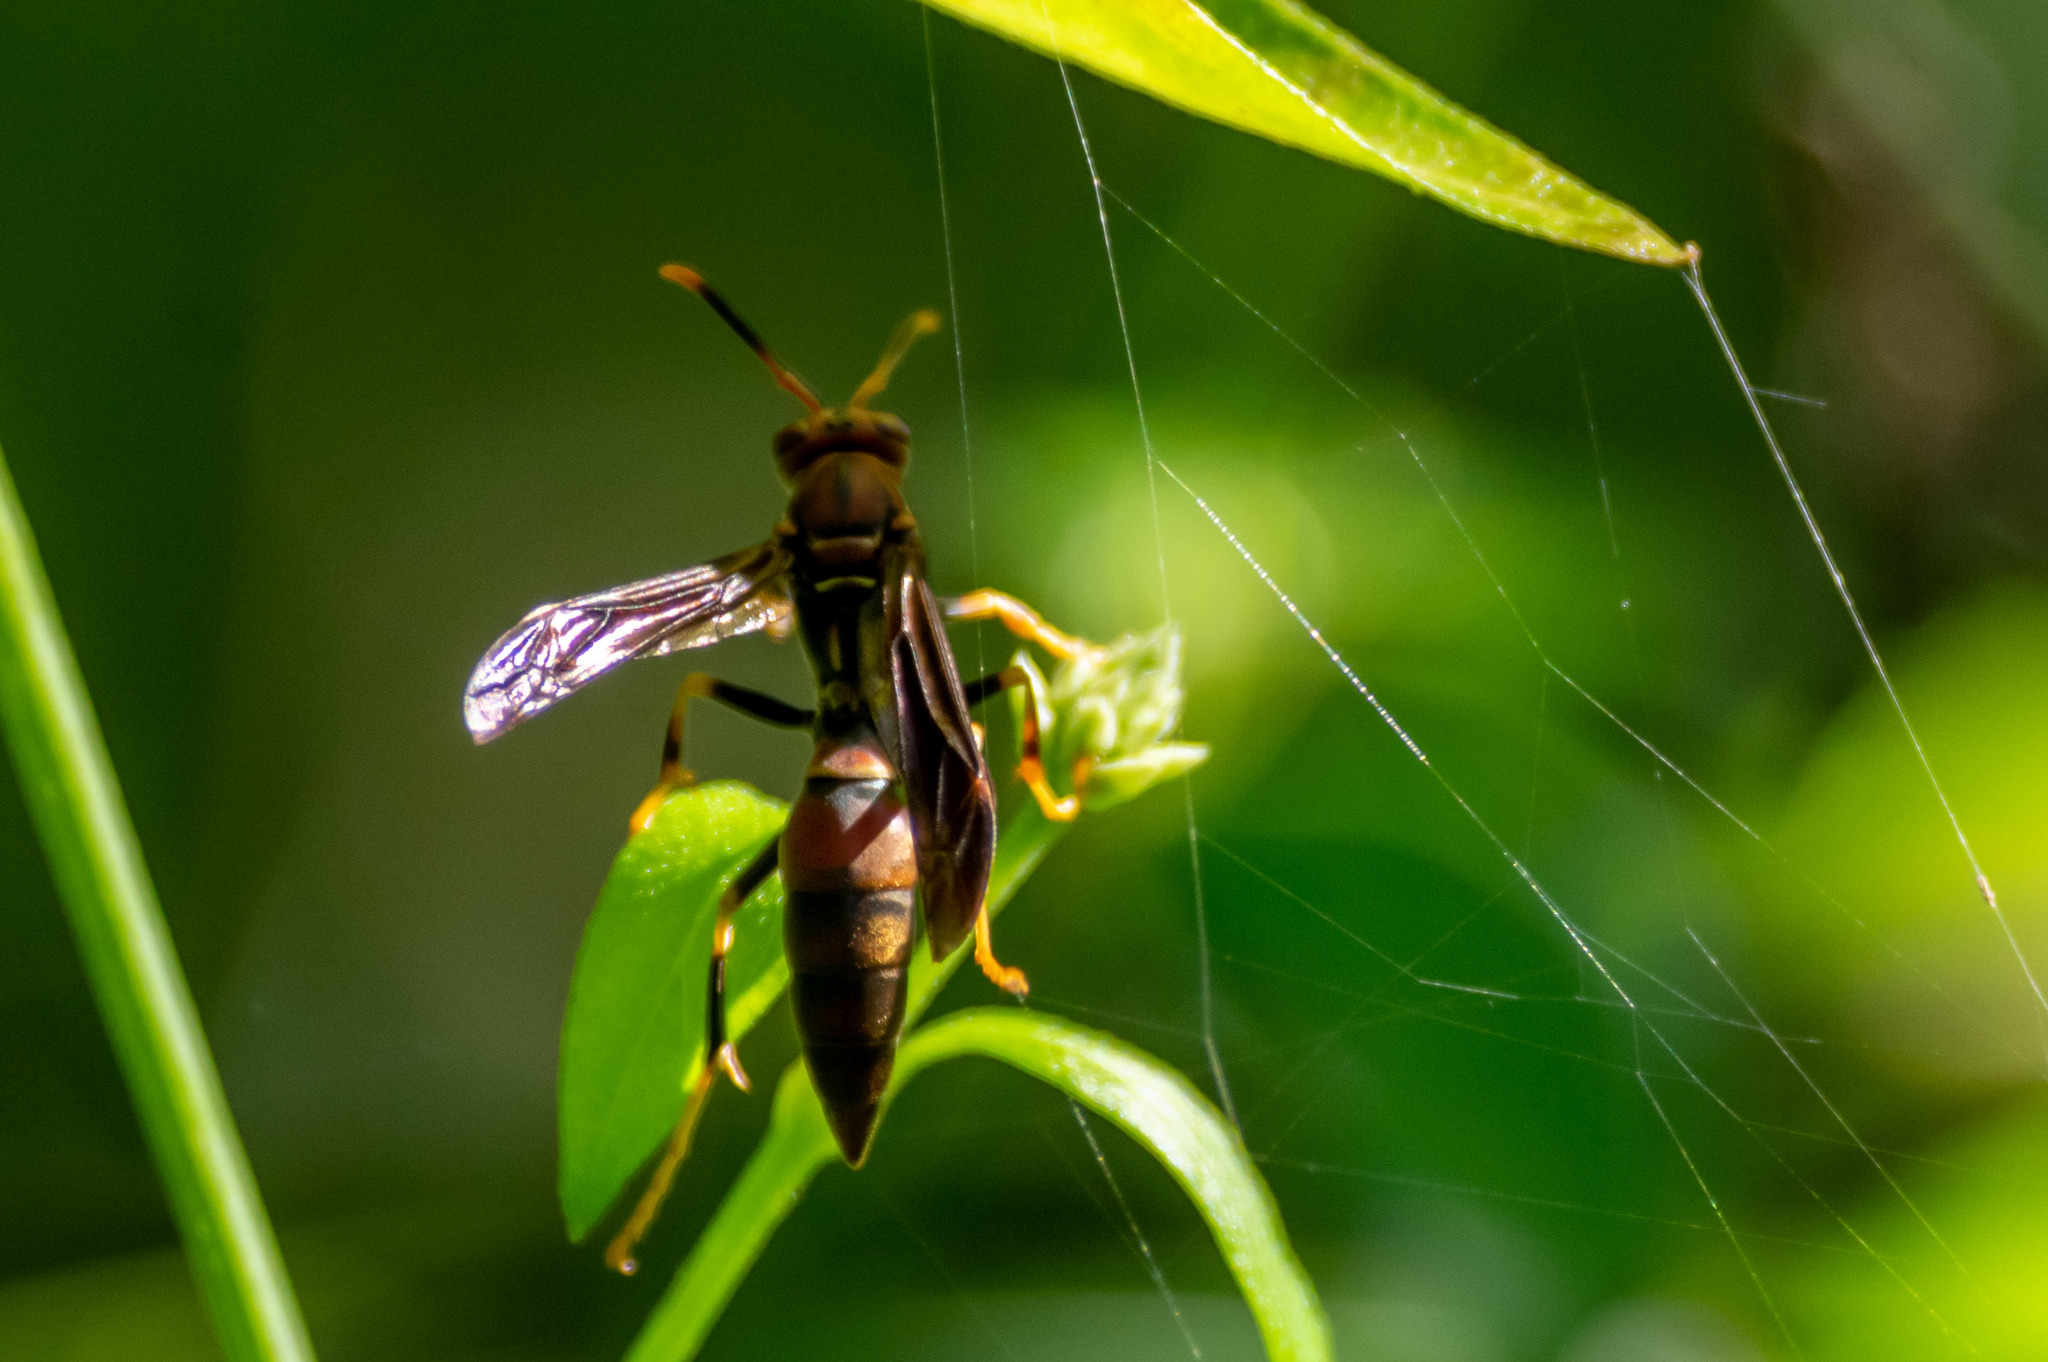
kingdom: Animalia
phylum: Arthropoda
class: Insecta
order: Hymenoptera
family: Eumenidae
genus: Polistes
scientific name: Polistes bahamensis
